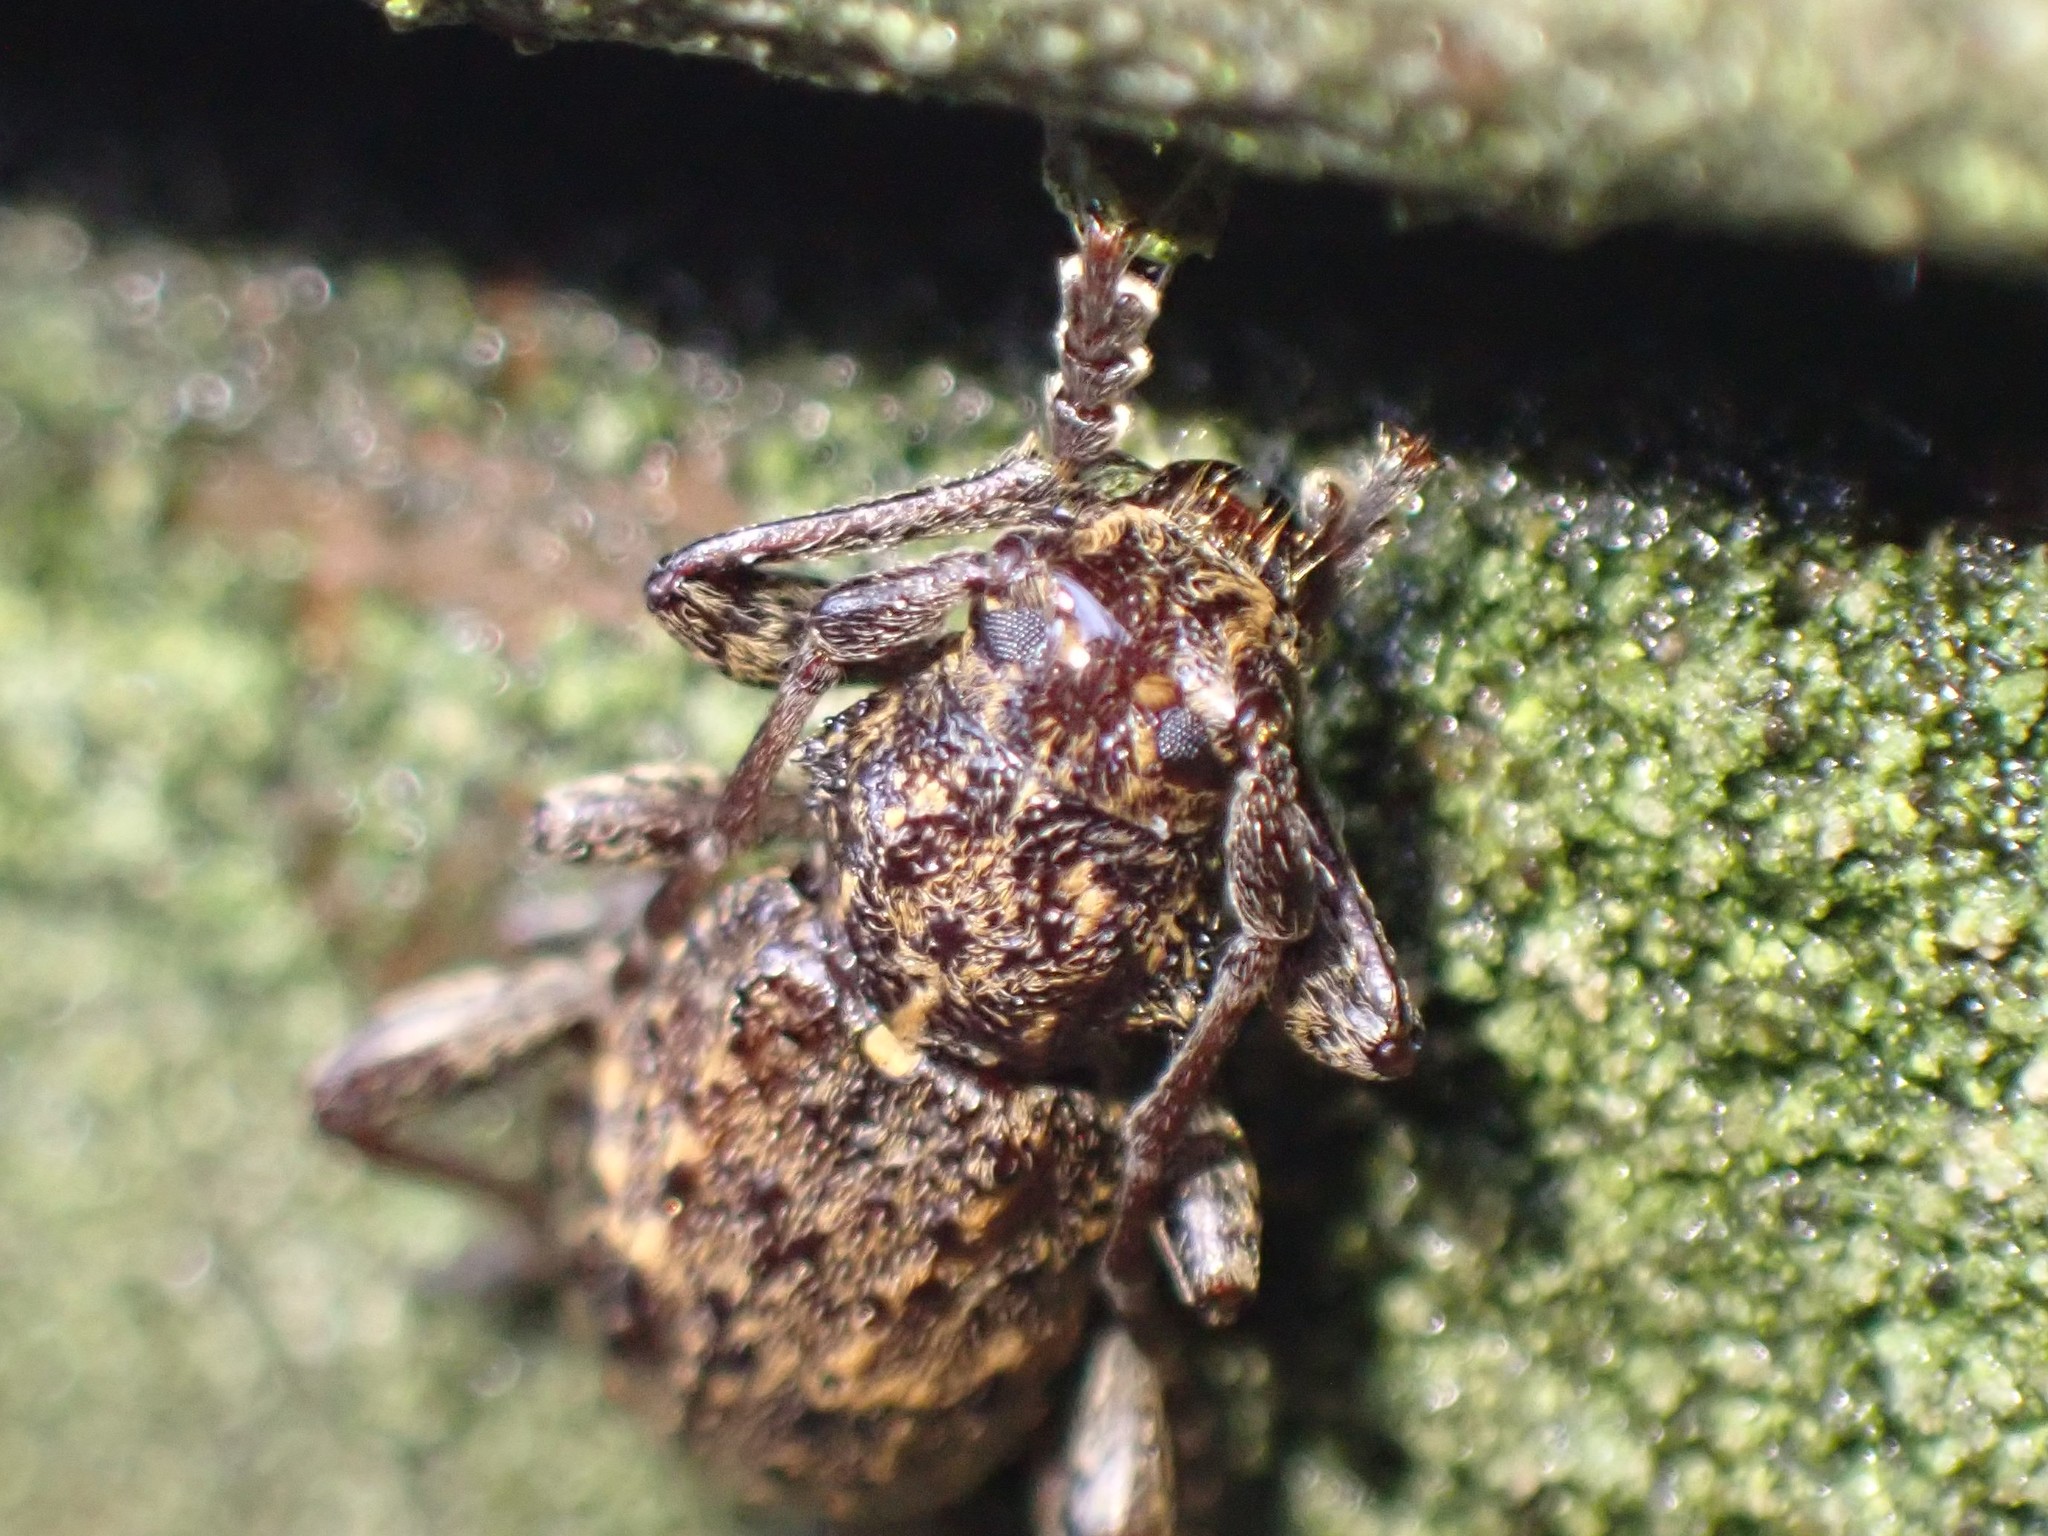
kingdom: Animalia
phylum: Arthropoda
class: Insecta
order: Coleoptera
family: Cerambycidae
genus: Plectrura
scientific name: Plectrura spinicauda
